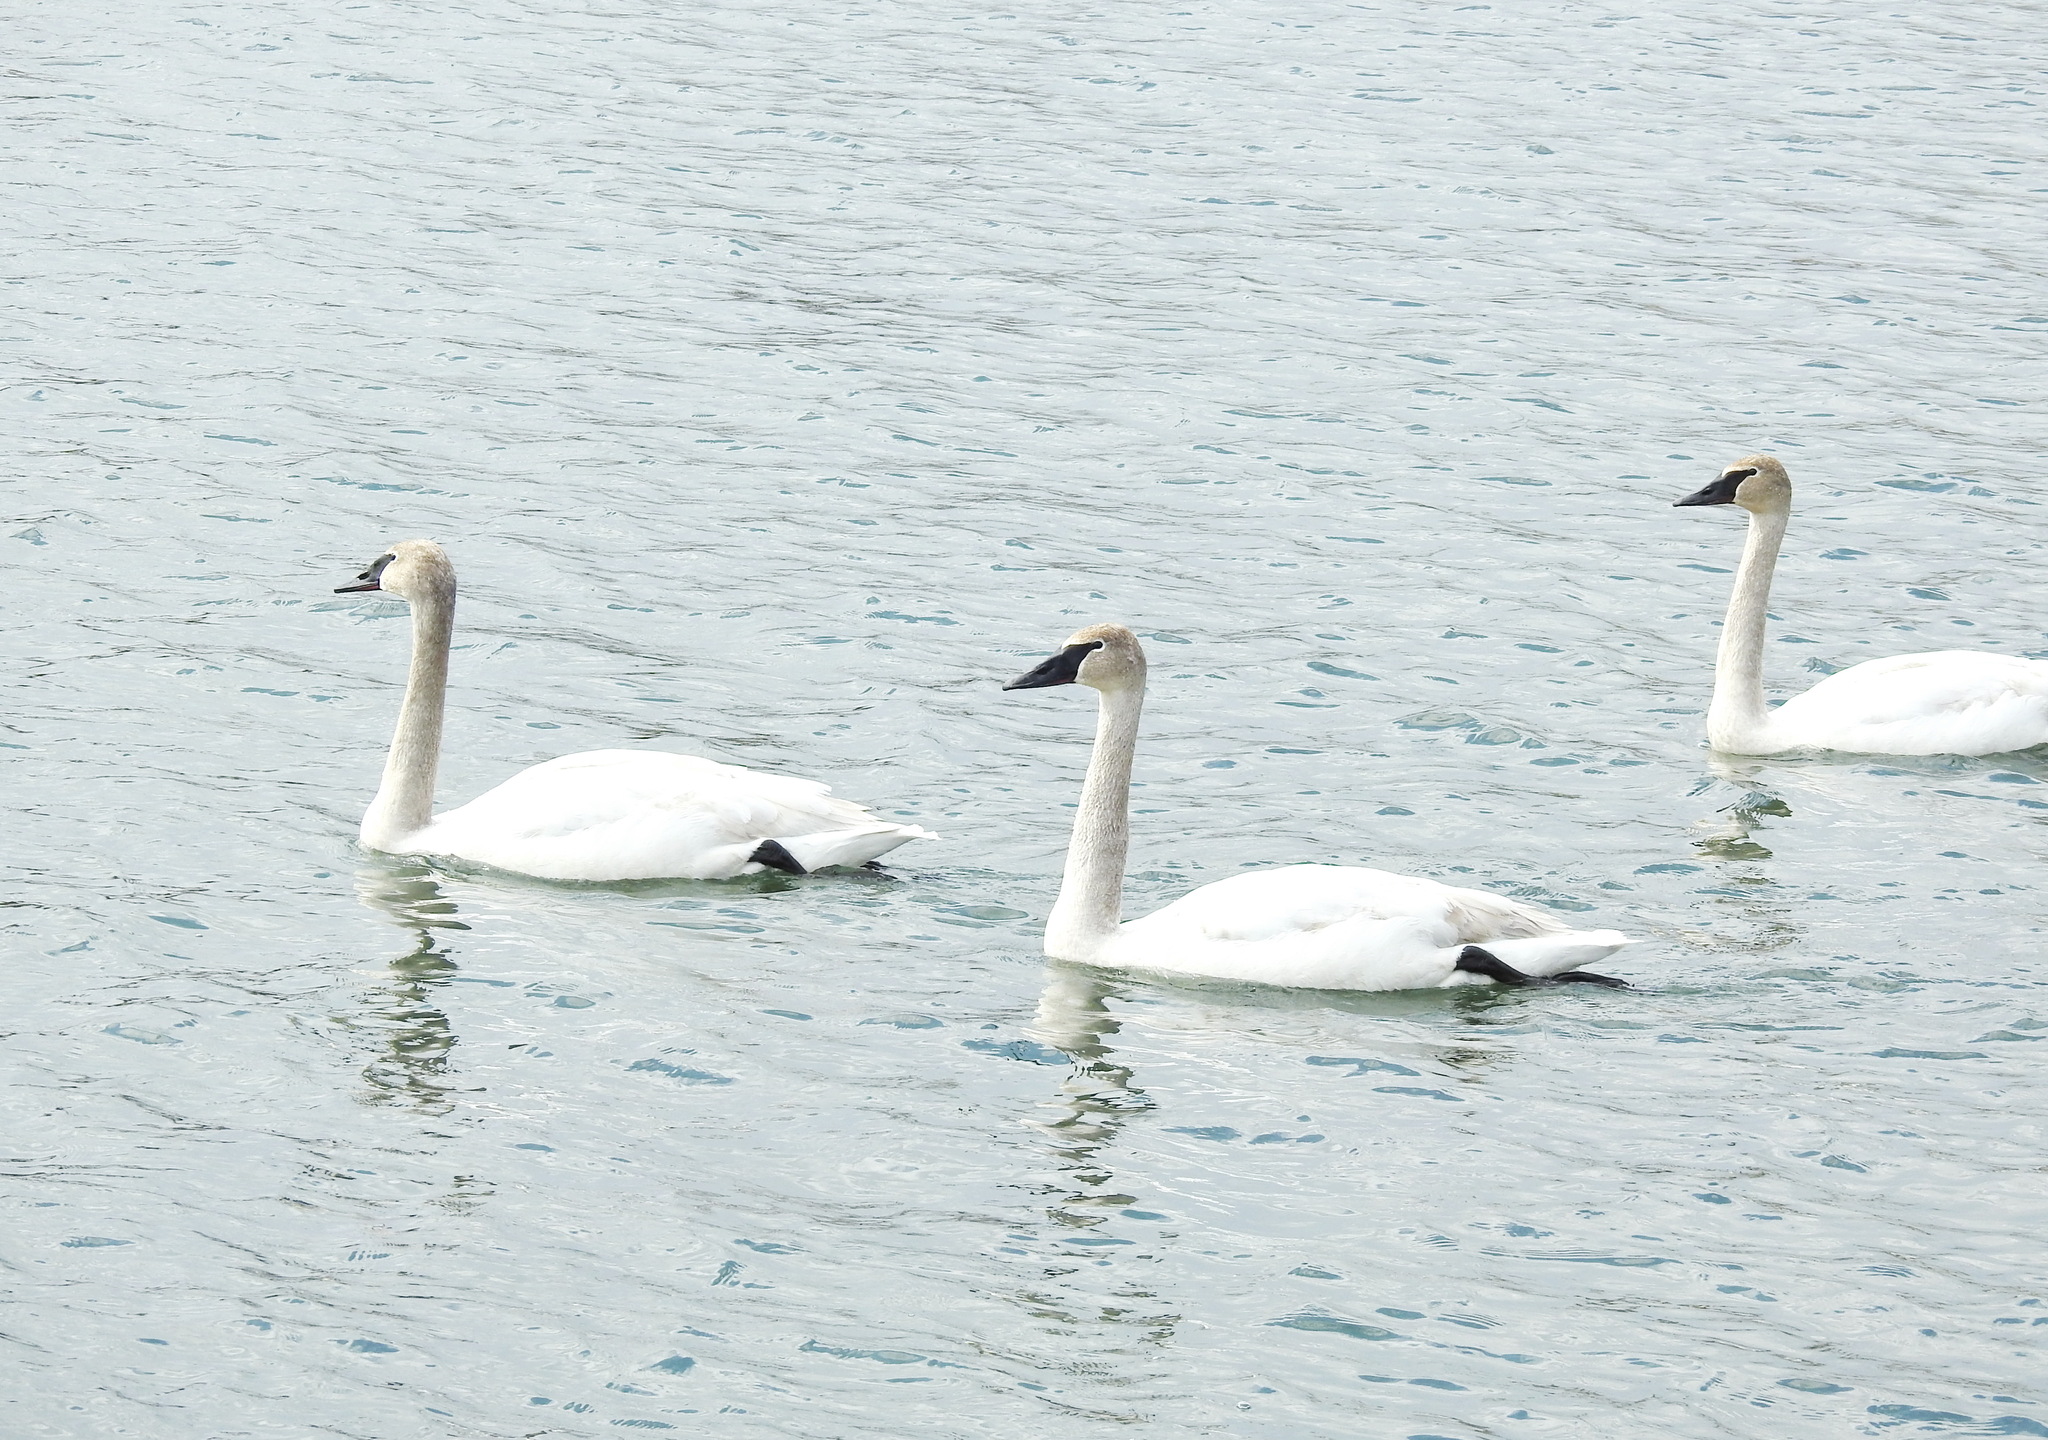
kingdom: Animalia
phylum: Chordata
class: Aves
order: Anseriformes
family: Anatidae
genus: Cygnus
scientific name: Cygnus buccinator
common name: Trumpeter swan
